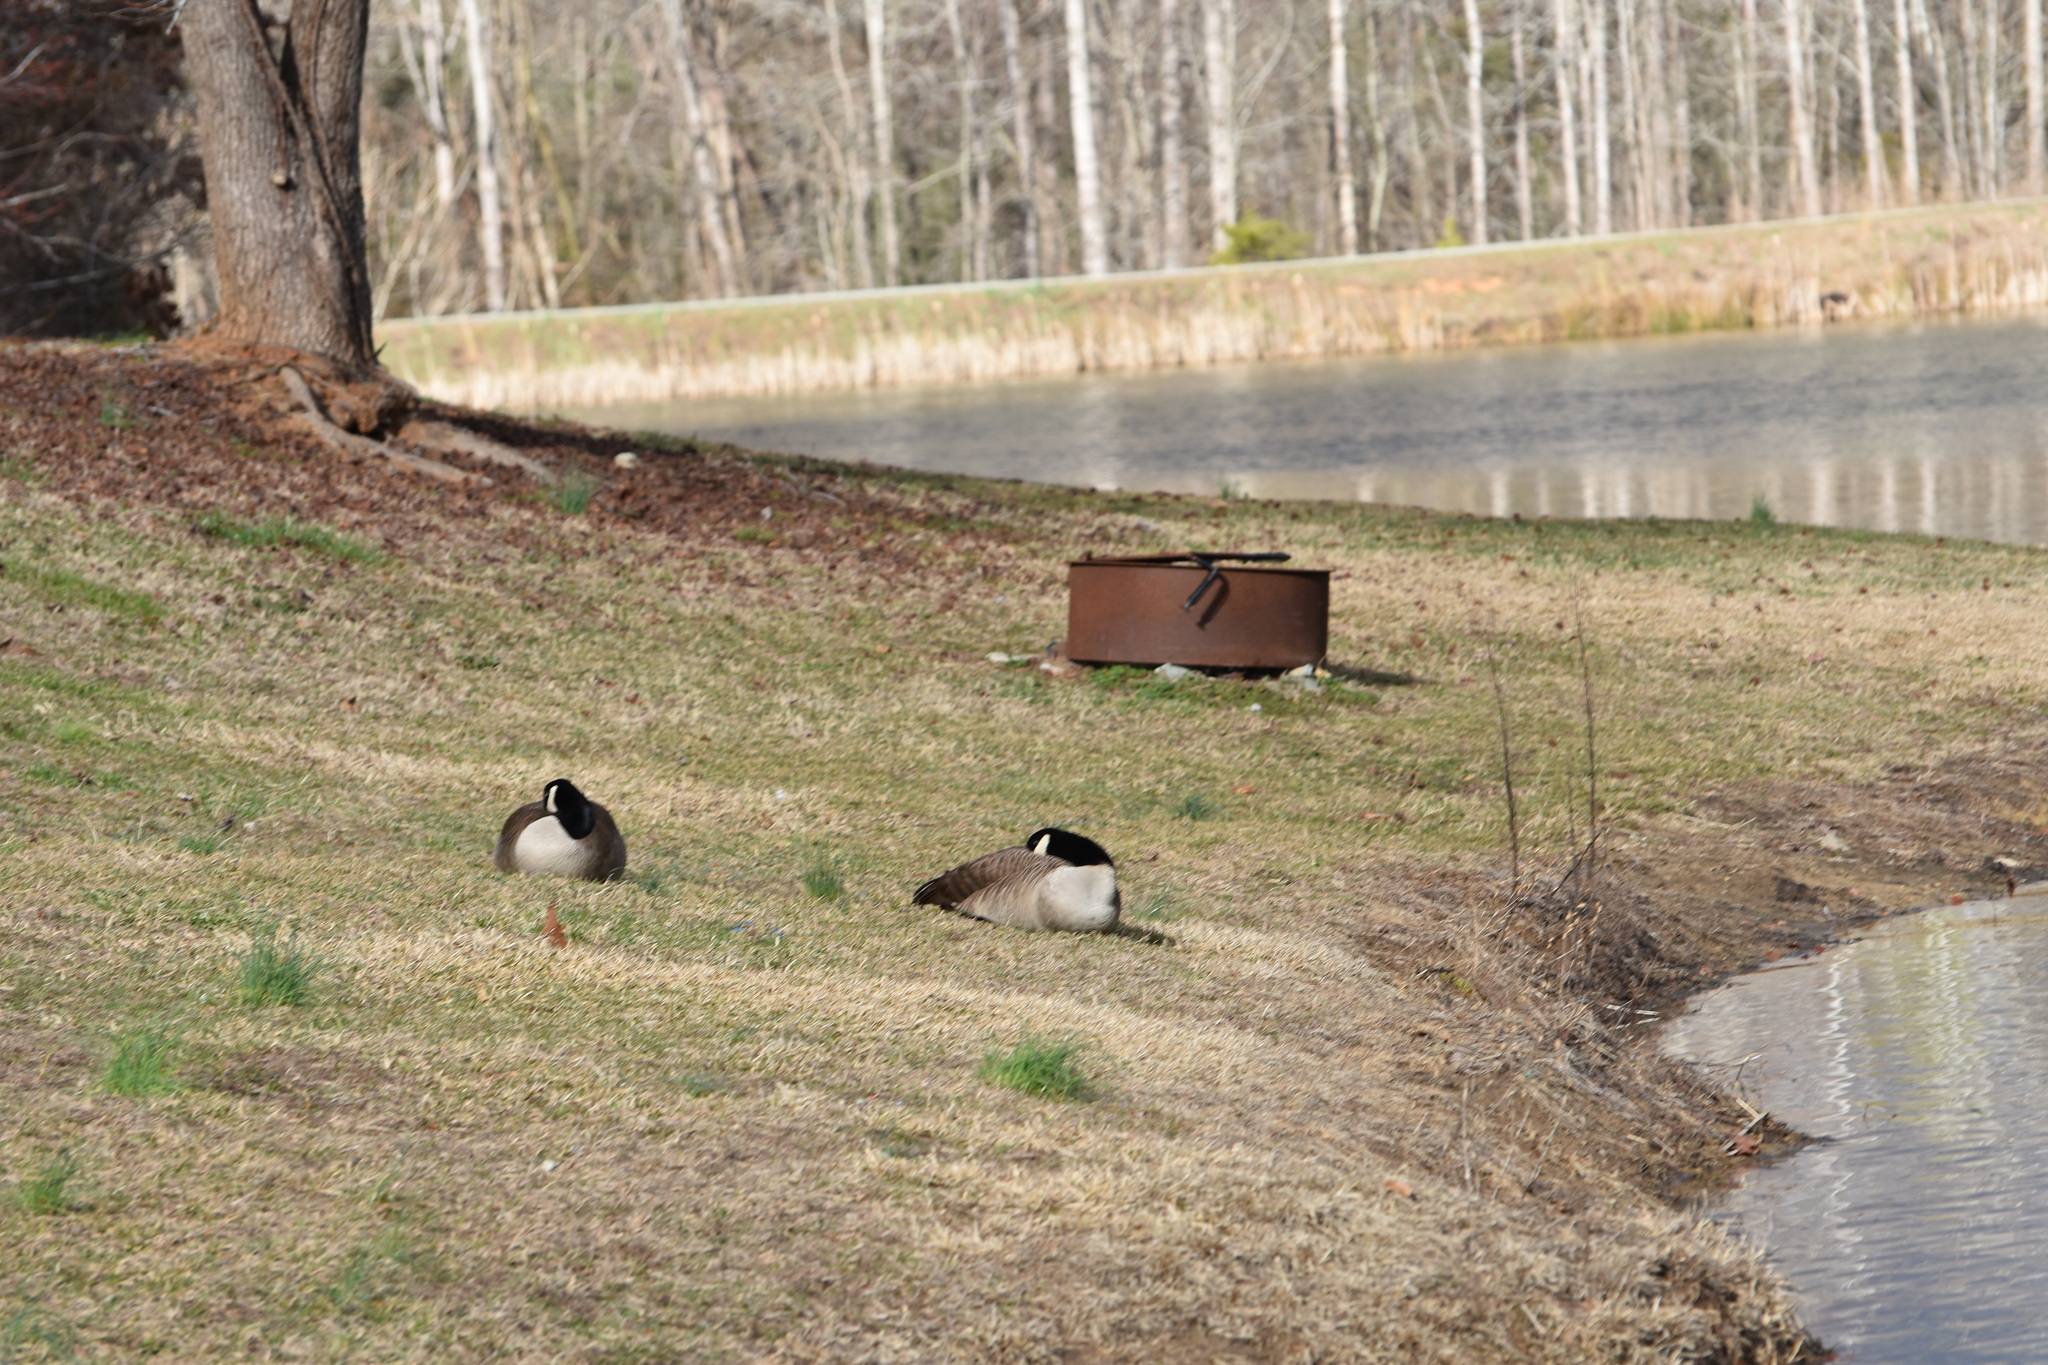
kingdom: Animalia
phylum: Chordata
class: Aves
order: Anseriformes
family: Anatidae
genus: Branta
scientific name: Branta canadensis
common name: Canada goose
